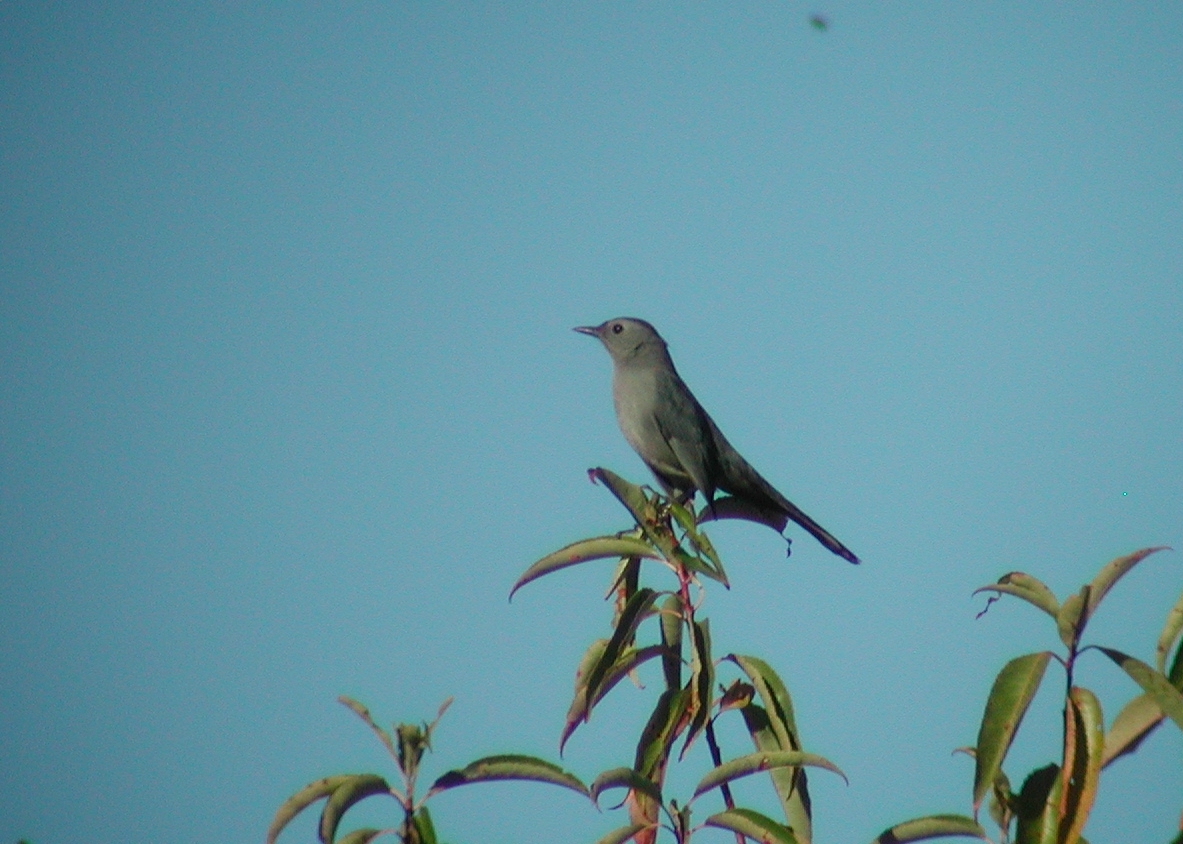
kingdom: Animalia
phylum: Chordata
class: Aves
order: Passeriformes
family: Mimidae
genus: Dumetella
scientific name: Dumetella carolinensis
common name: Gray catbird
